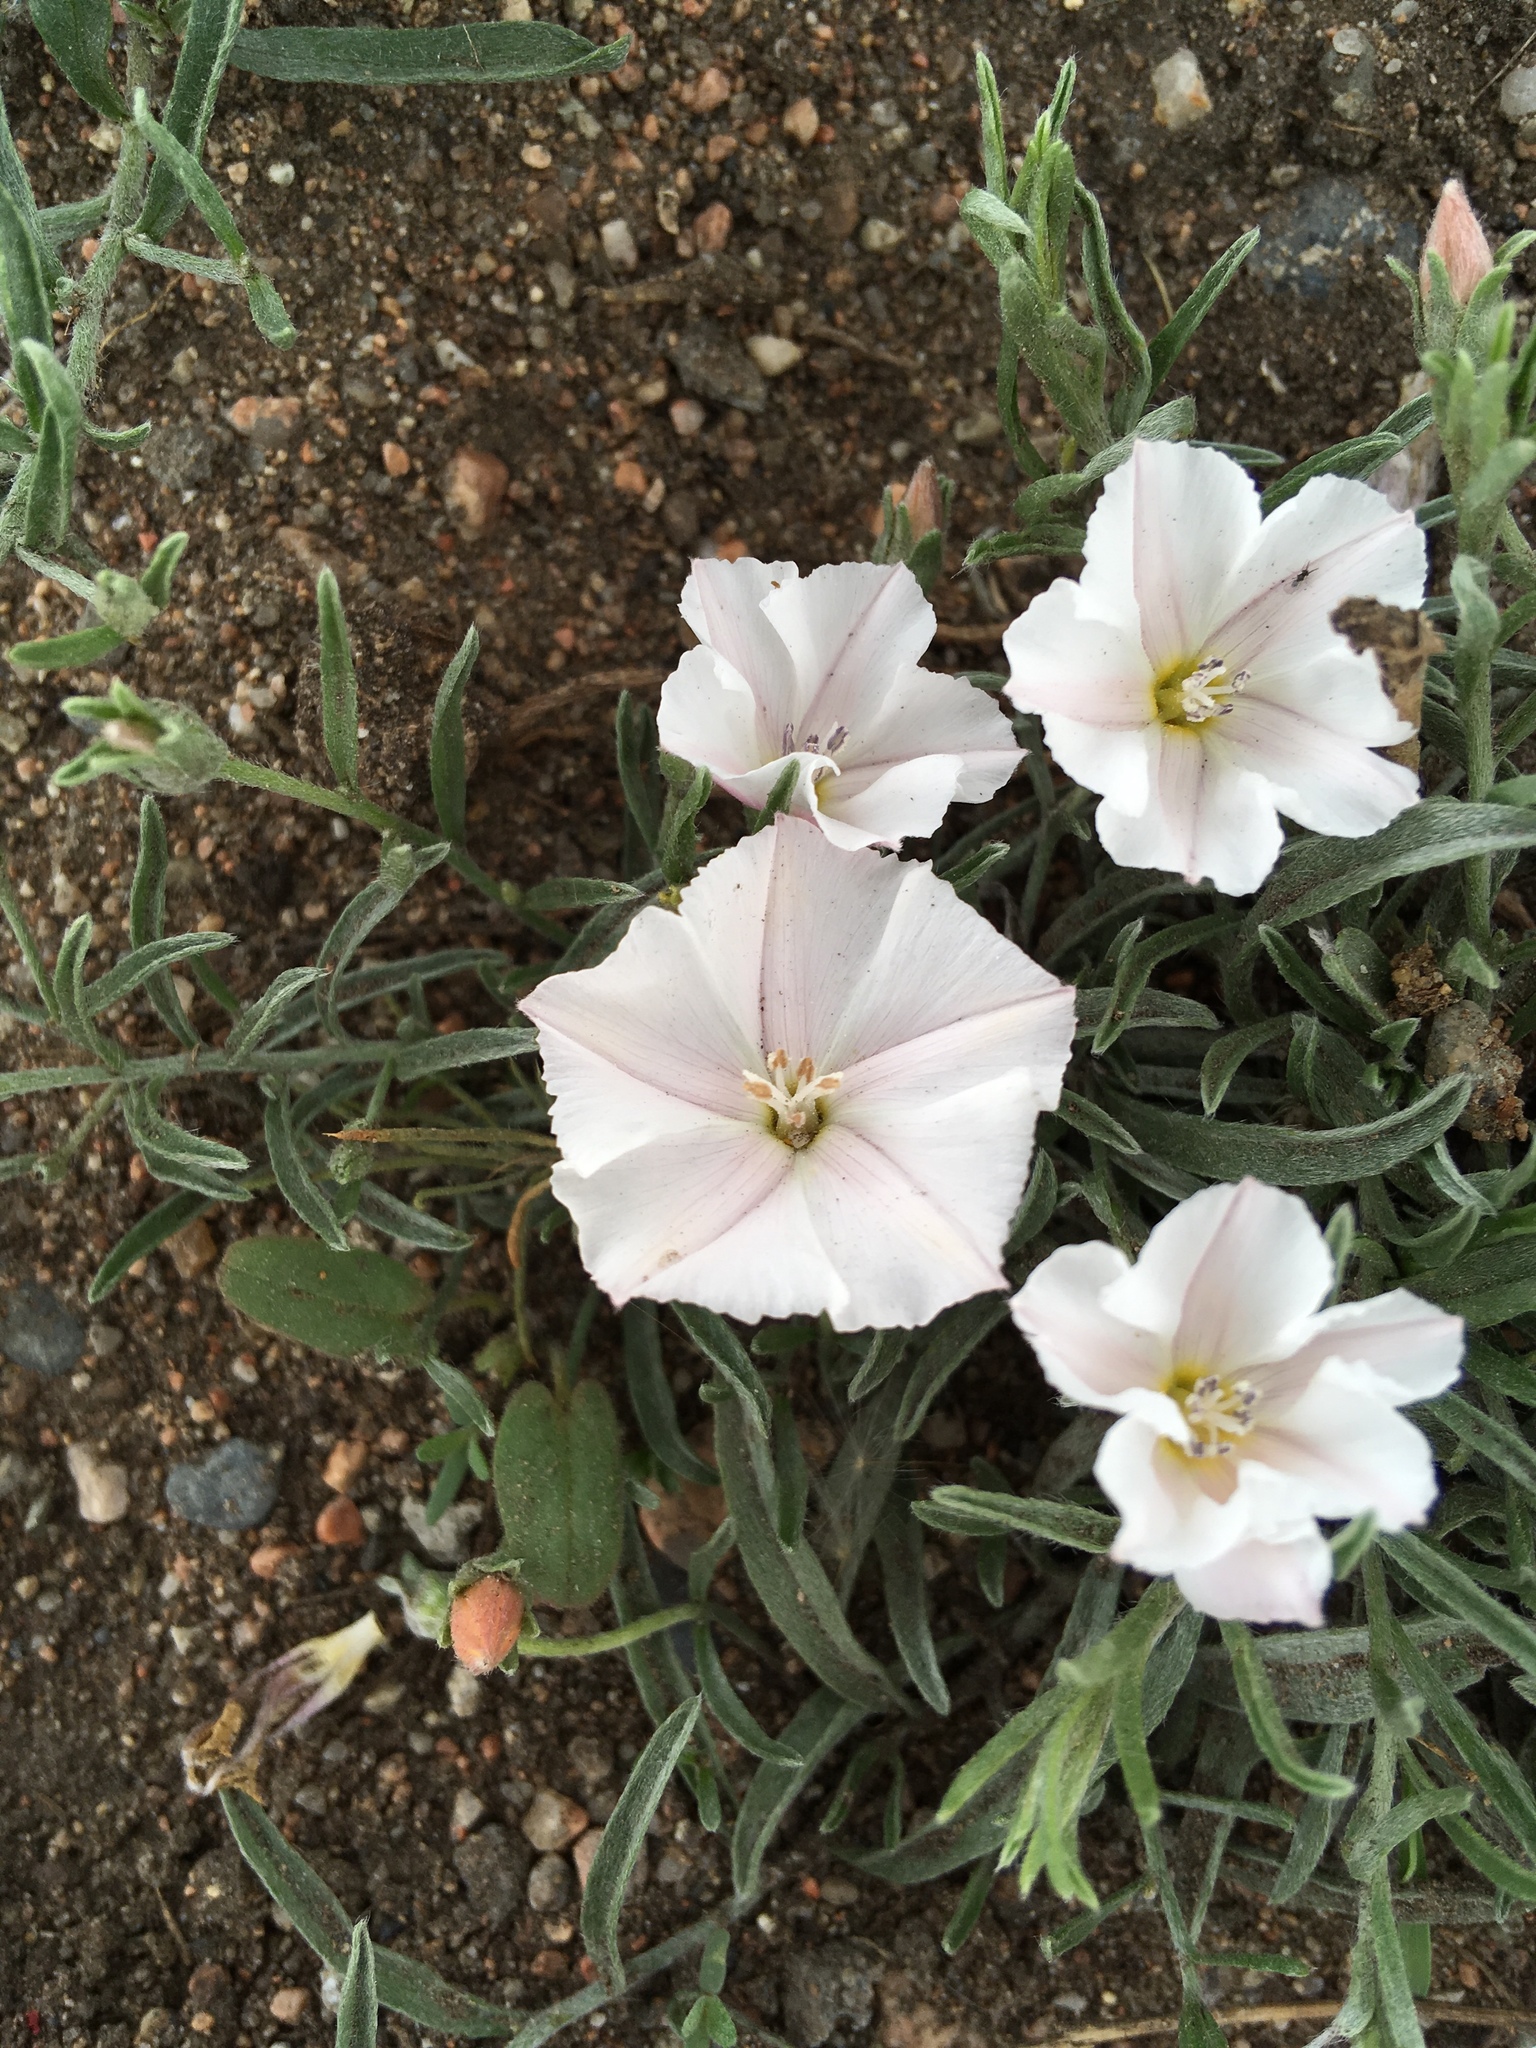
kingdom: Plantae
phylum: Tracheophyta
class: Magnoliopsida
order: Solanales
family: Convolvulaceae
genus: Convolvulus
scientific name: Convolvulus ammannii
